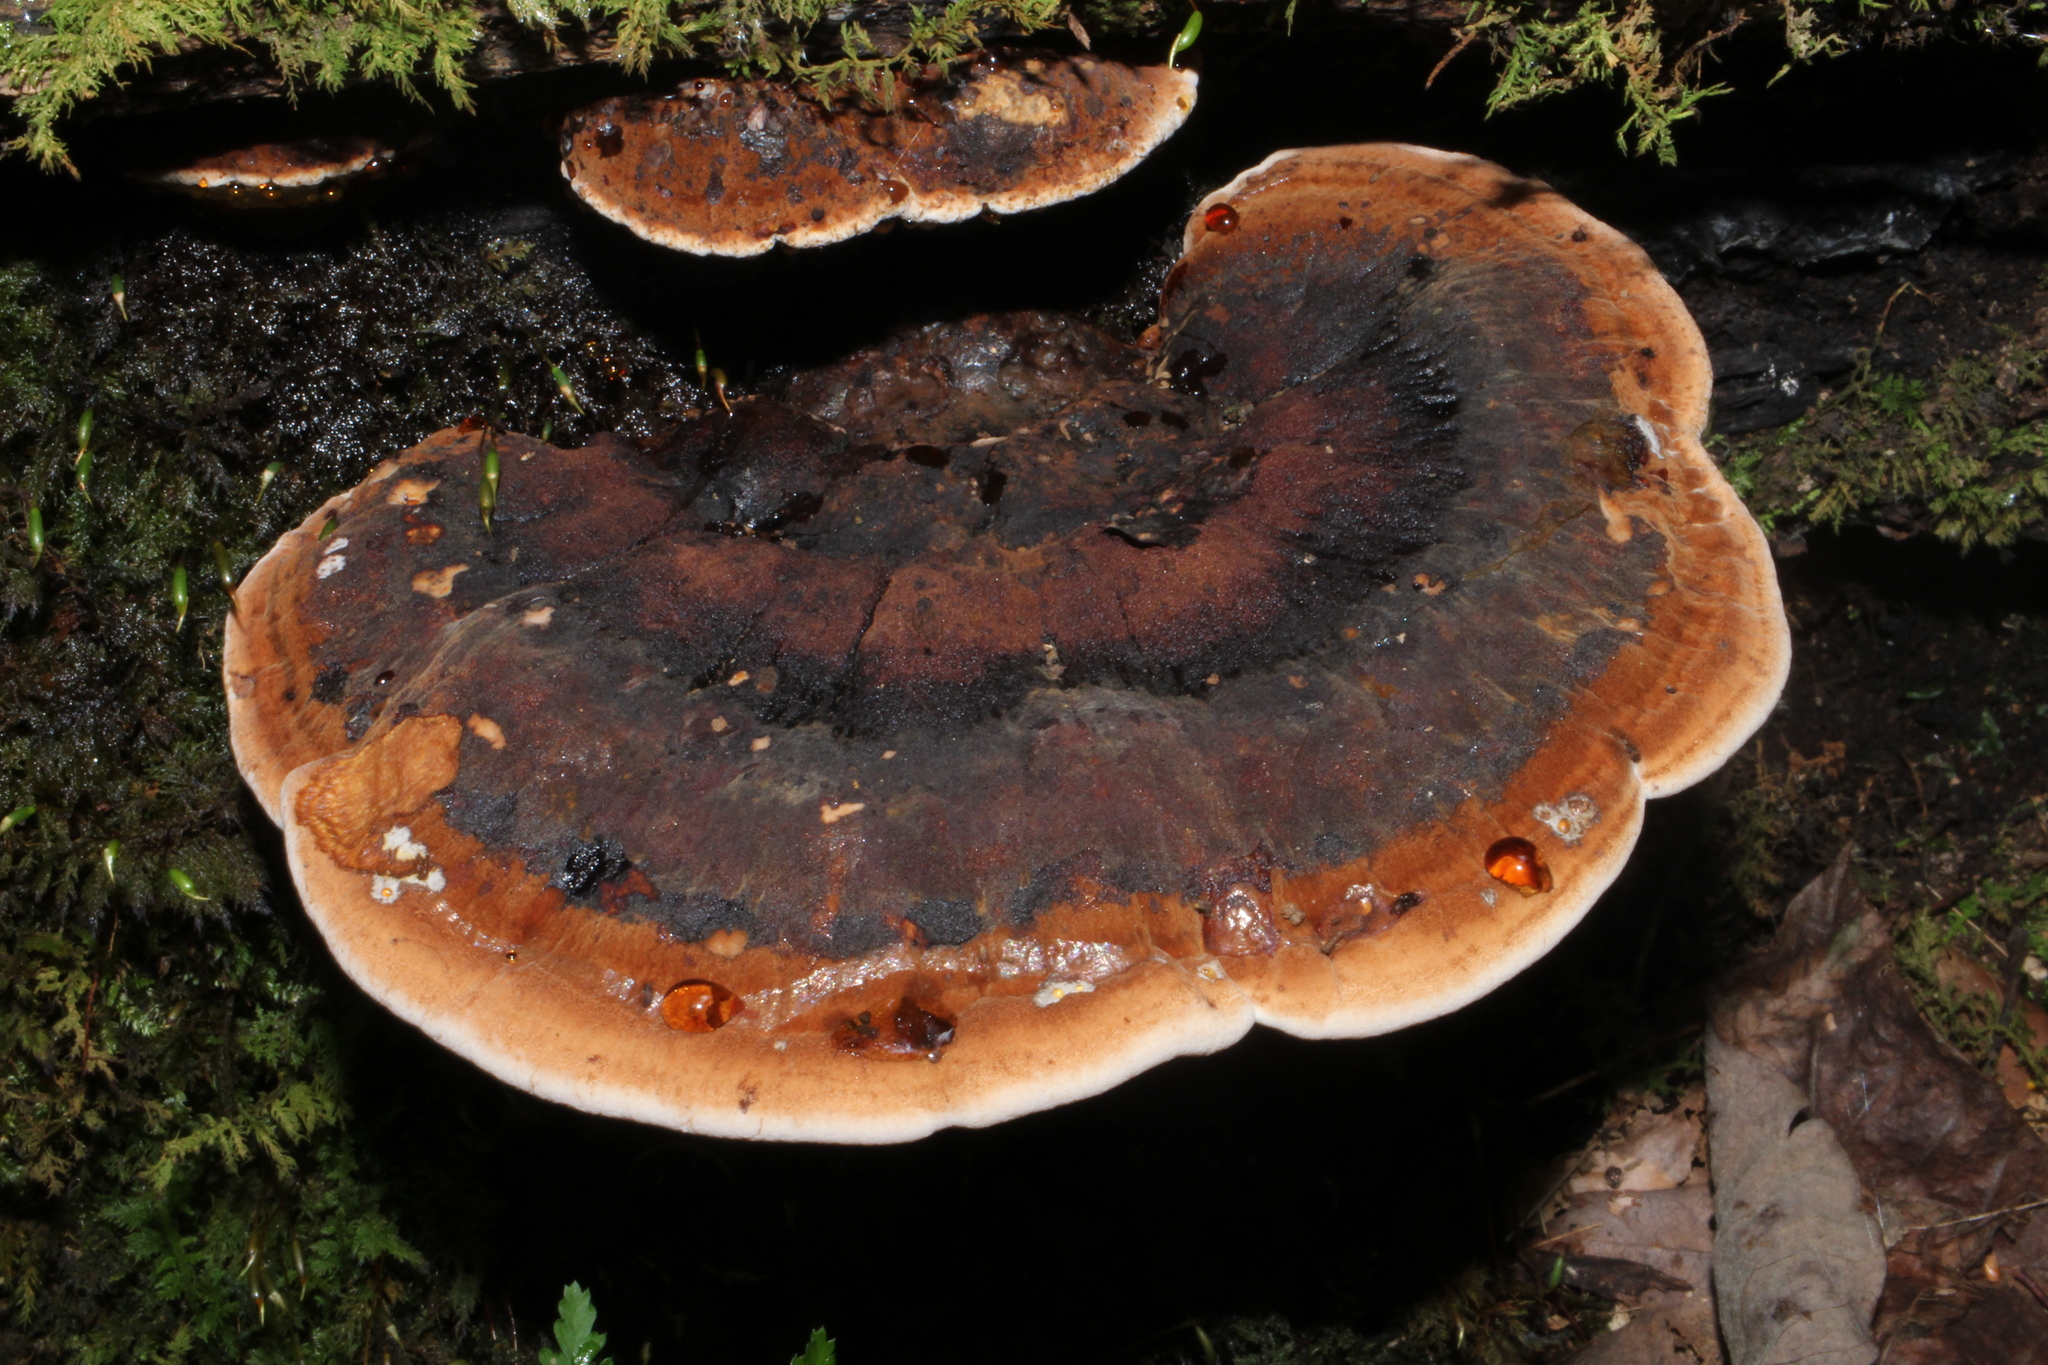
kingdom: Fungi
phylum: Basidiomycota
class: Agaricomycetes
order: Polyporales
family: Ischnodermataceae
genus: Ischnoderma
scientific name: Ischnoderma resinosum
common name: Resinous polypore
